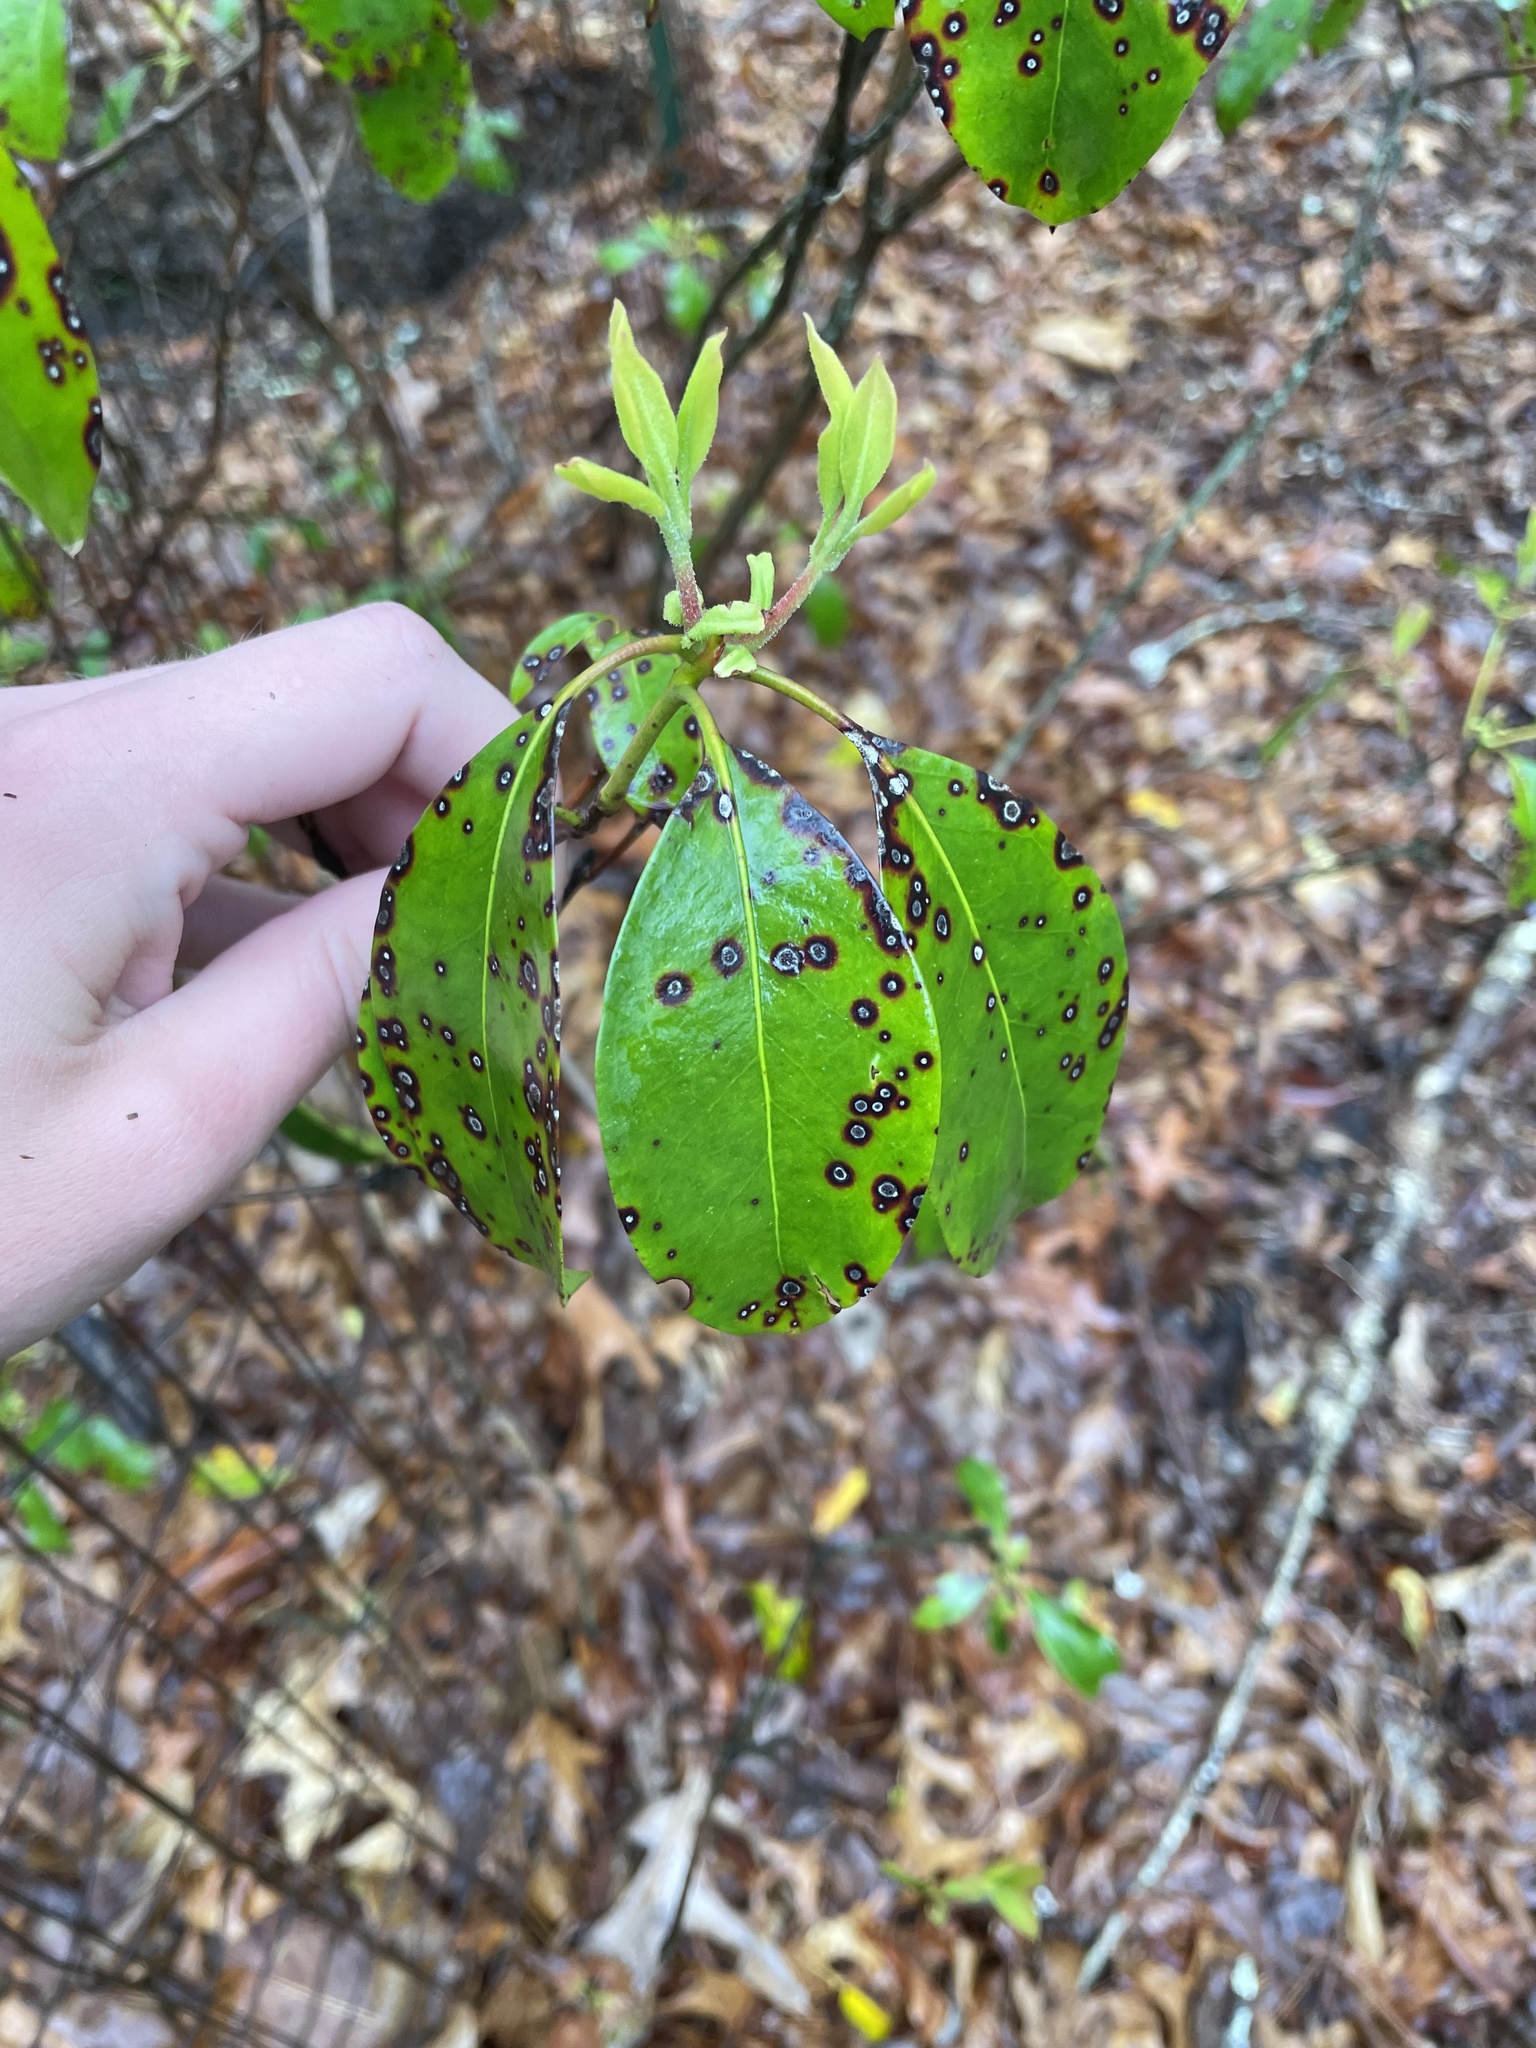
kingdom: Plantae
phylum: Tracheophyta
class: Magnoliopsida
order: Ericales
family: Ericaceae
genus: Kalmia
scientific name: Kalmia latifolia
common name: Mountain-laurel
